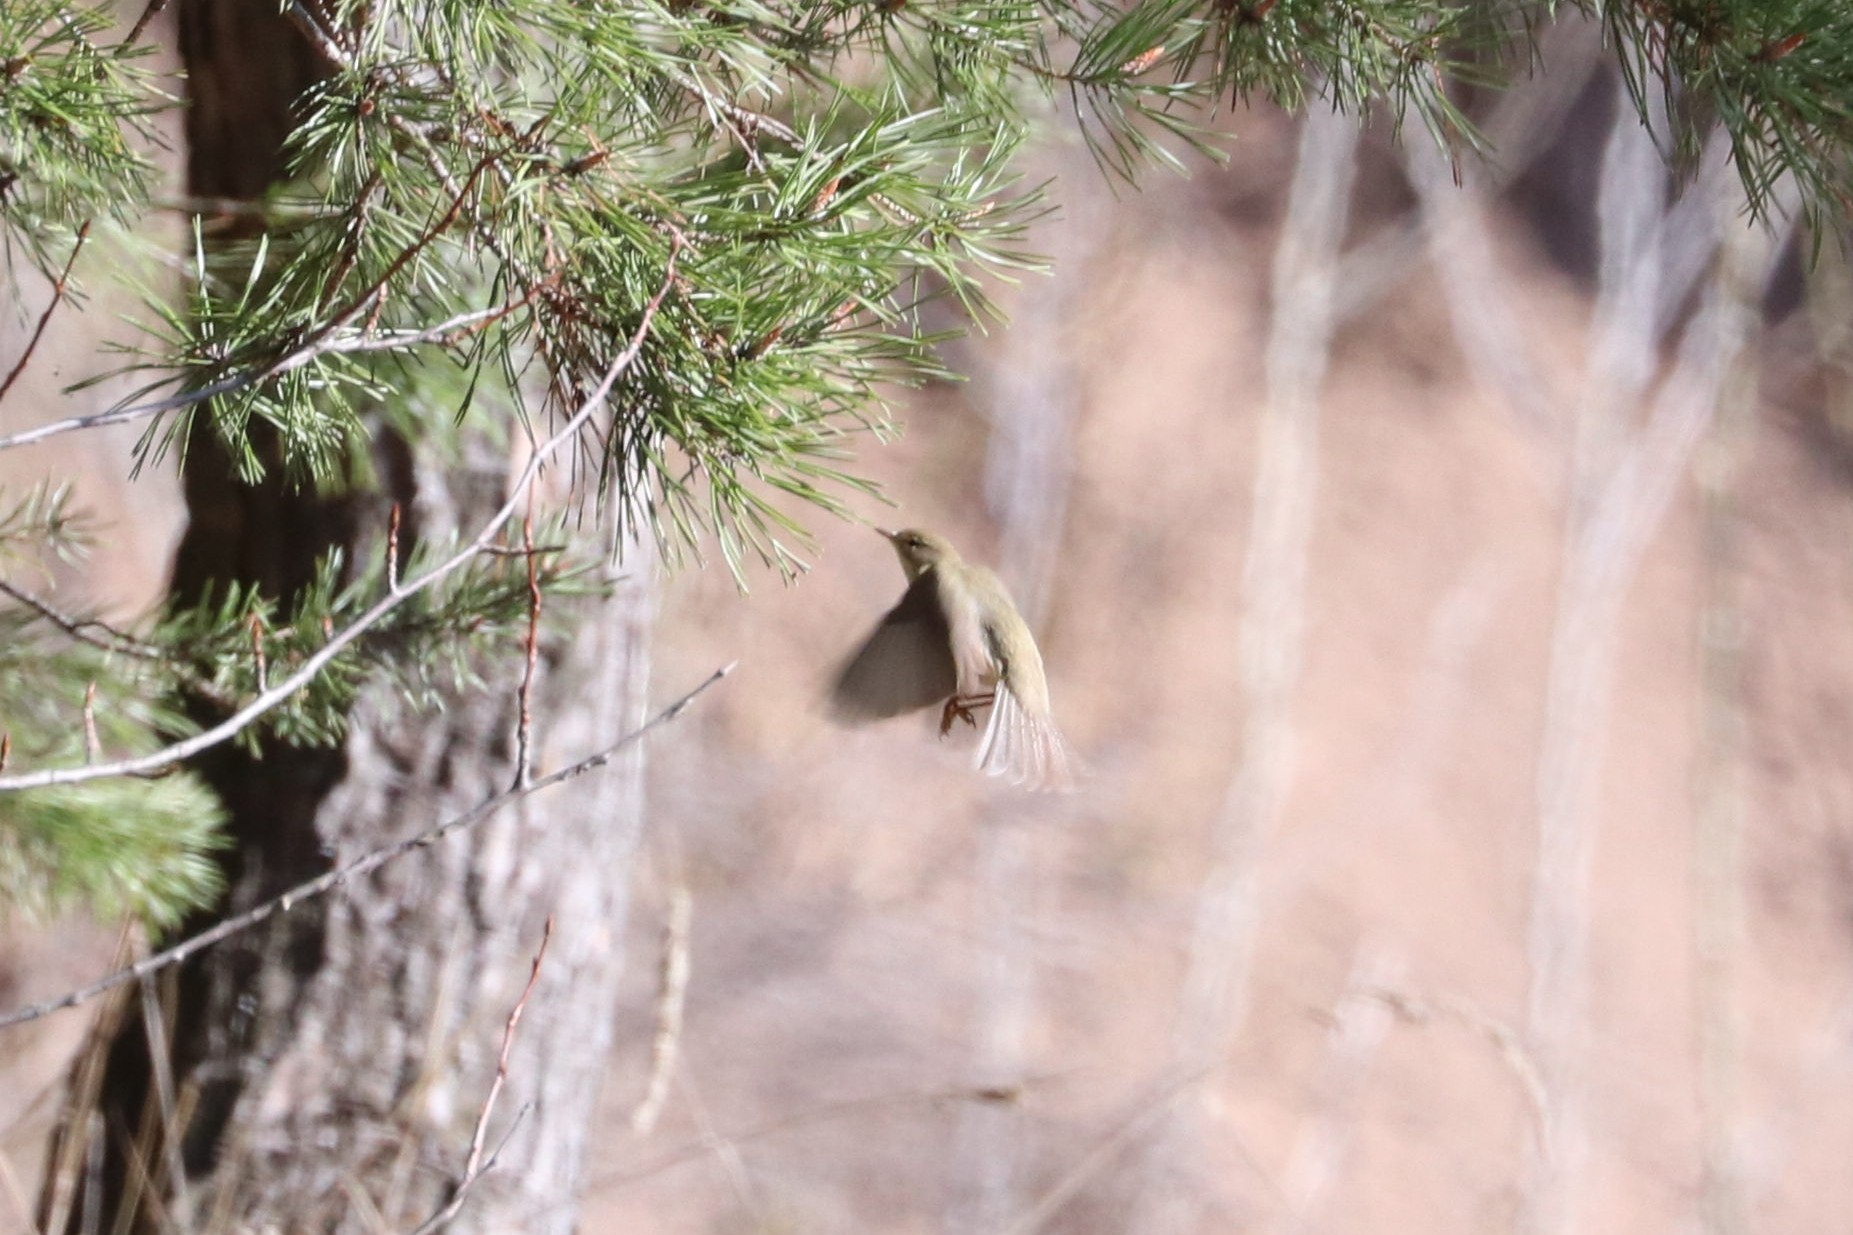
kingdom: Animalia
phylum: Chordata
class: Aves
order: Passeriformes
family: Phylloscopidae
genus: Phylloscopus
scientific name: Phylloscopus trochilus
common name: Willow warbler
